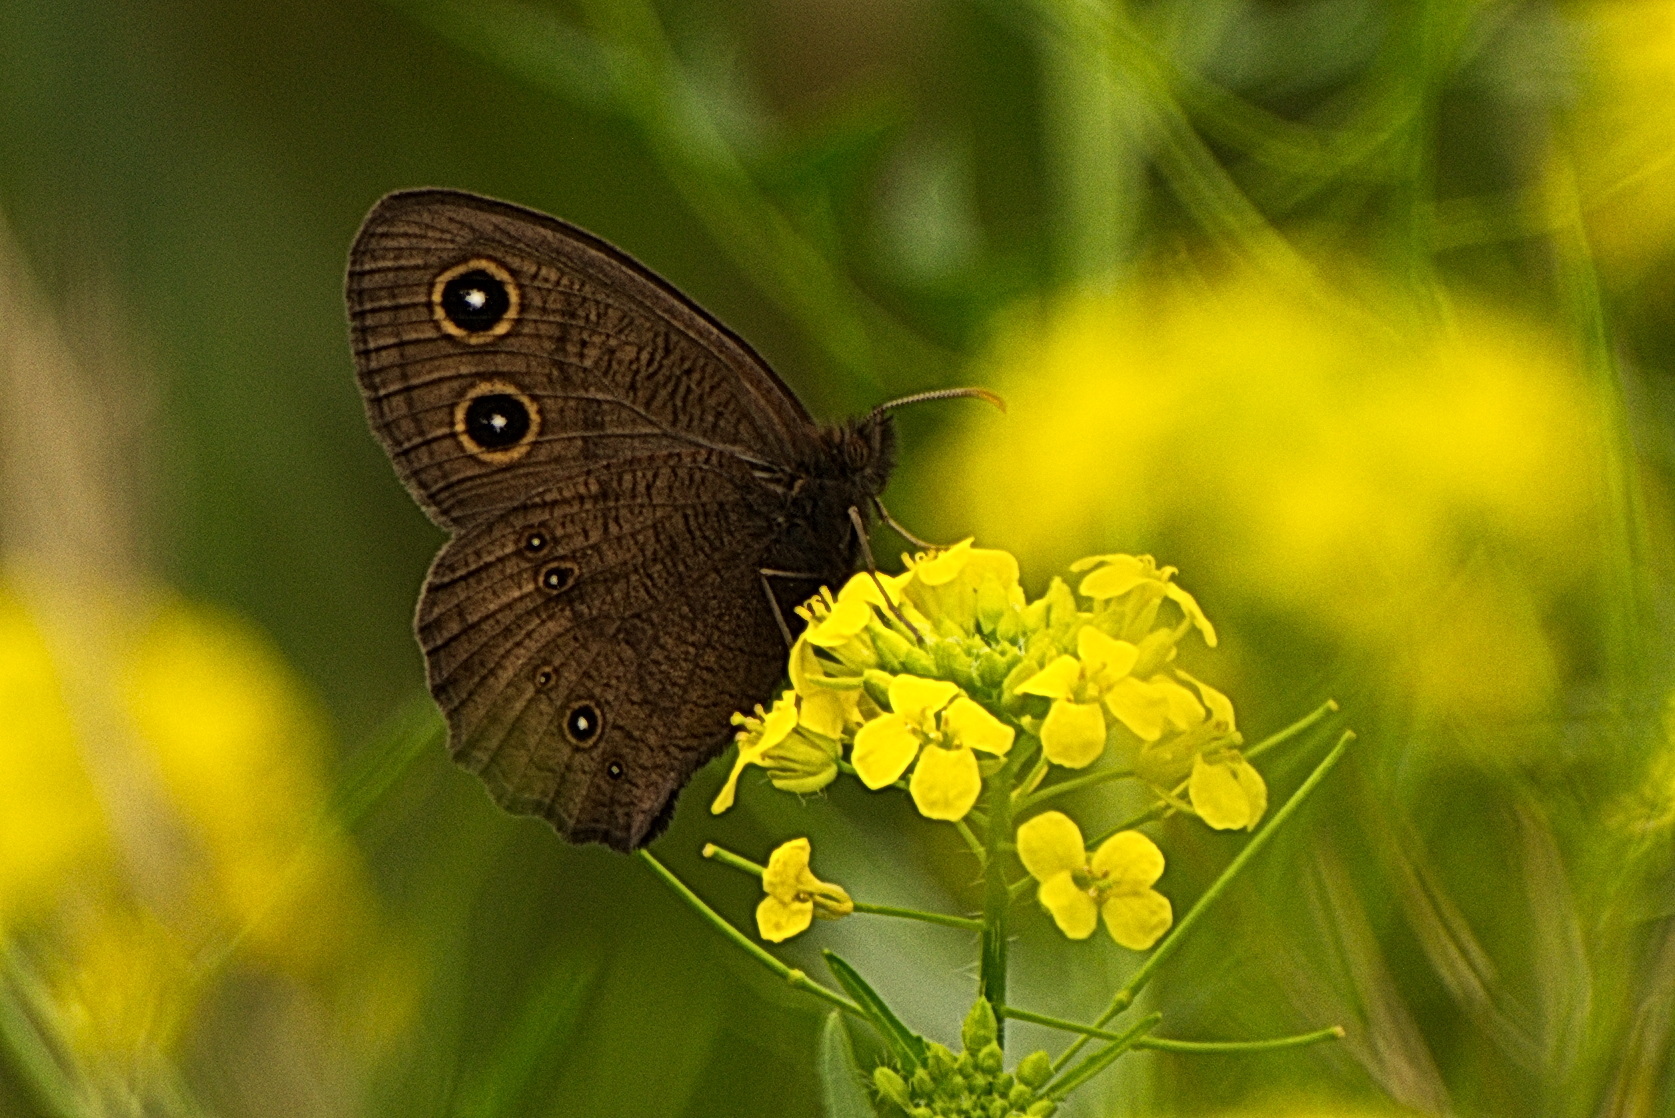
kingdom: Animalia
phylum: Arthropoda
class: Insecta
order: Lepidoptera
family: Nymphalidae
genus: Cercyonis
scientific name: Cercyonis pegala
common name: Common wood-nymph
